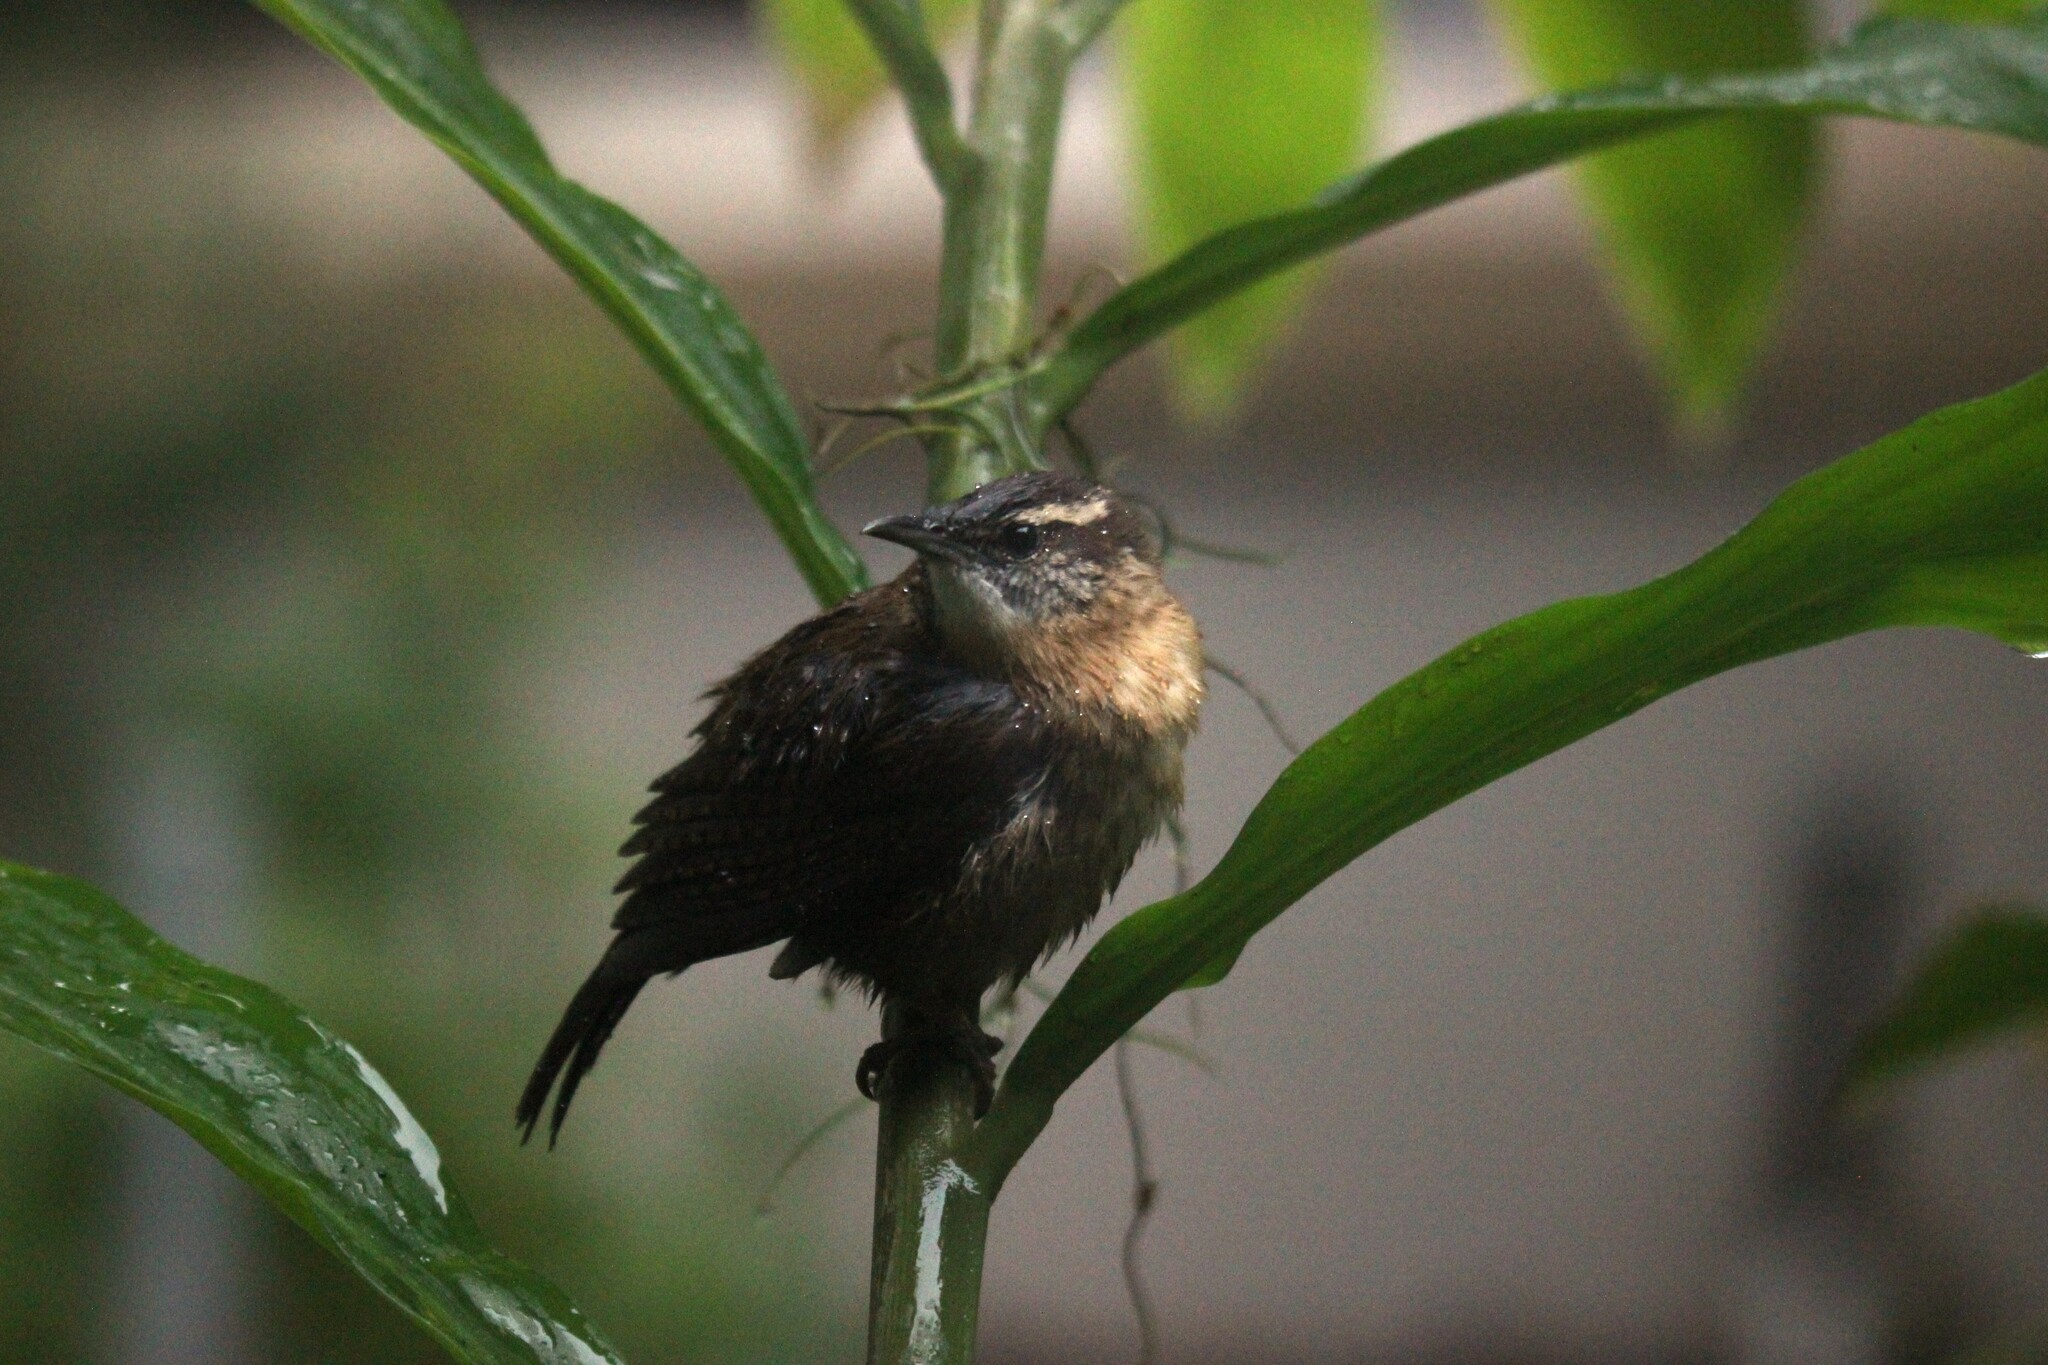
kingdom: Animalia
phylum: Chordata
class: Aves
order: Passeriformes
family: Troglodytidae
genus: Thryothorus
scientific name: Thryothorus ludovicianus
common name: Carolina wren
